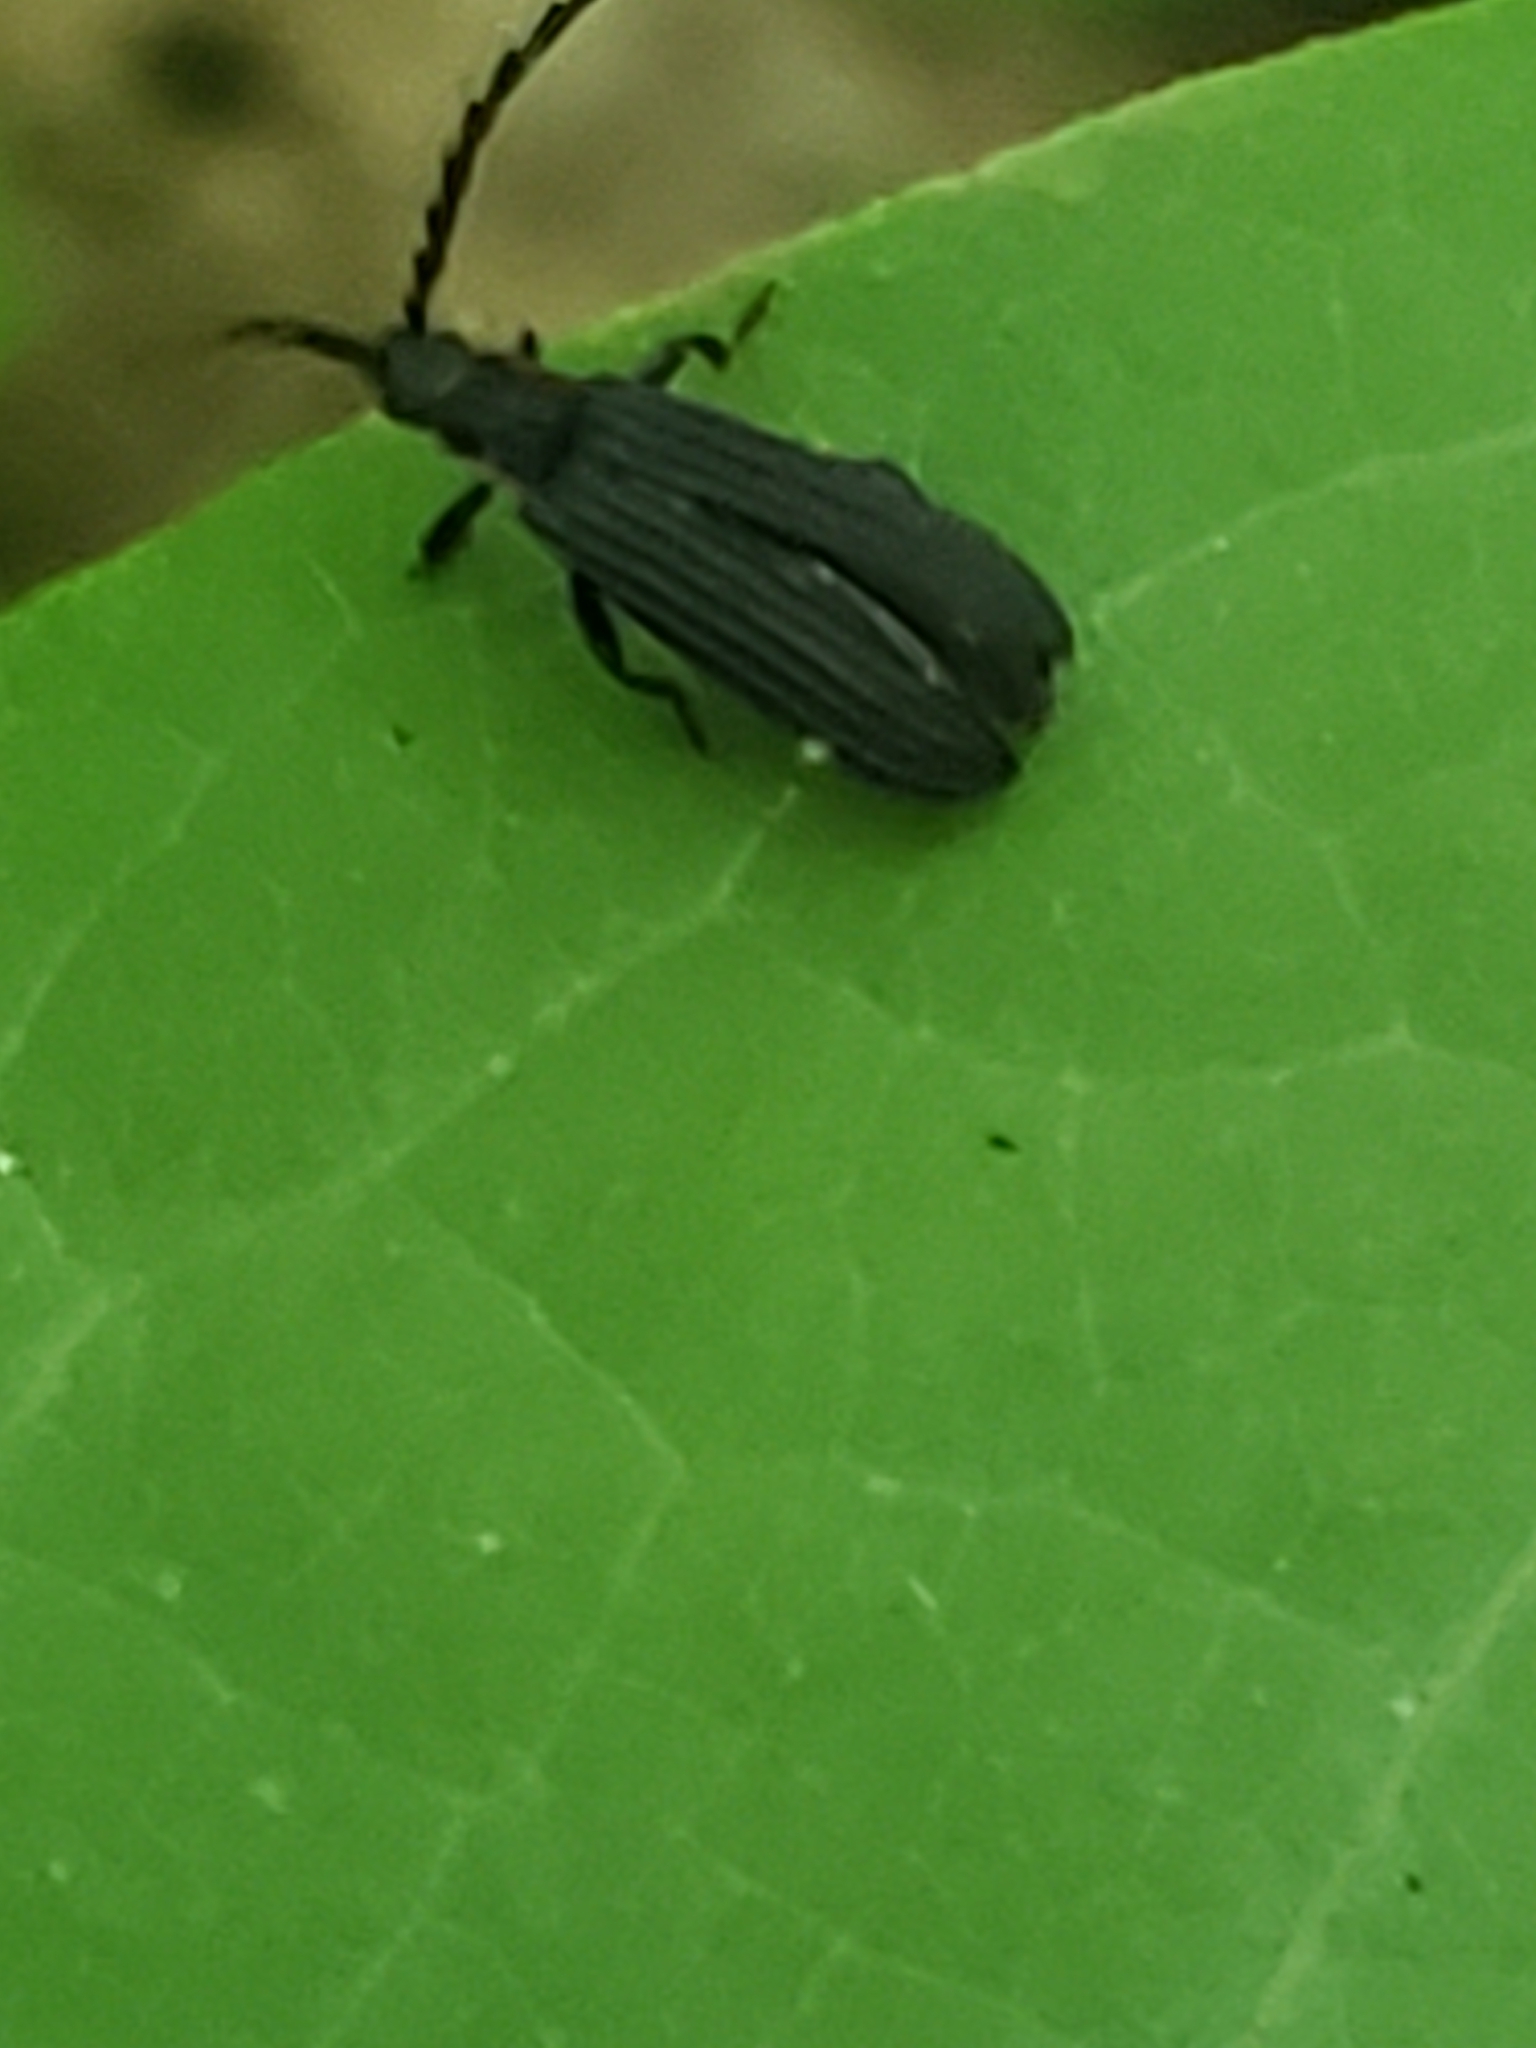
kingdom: Animalia
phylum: Arthropoda
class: Insecta
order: Coleoptera
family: Lycidae
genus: Erotides
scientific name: Erotides sculptilis
